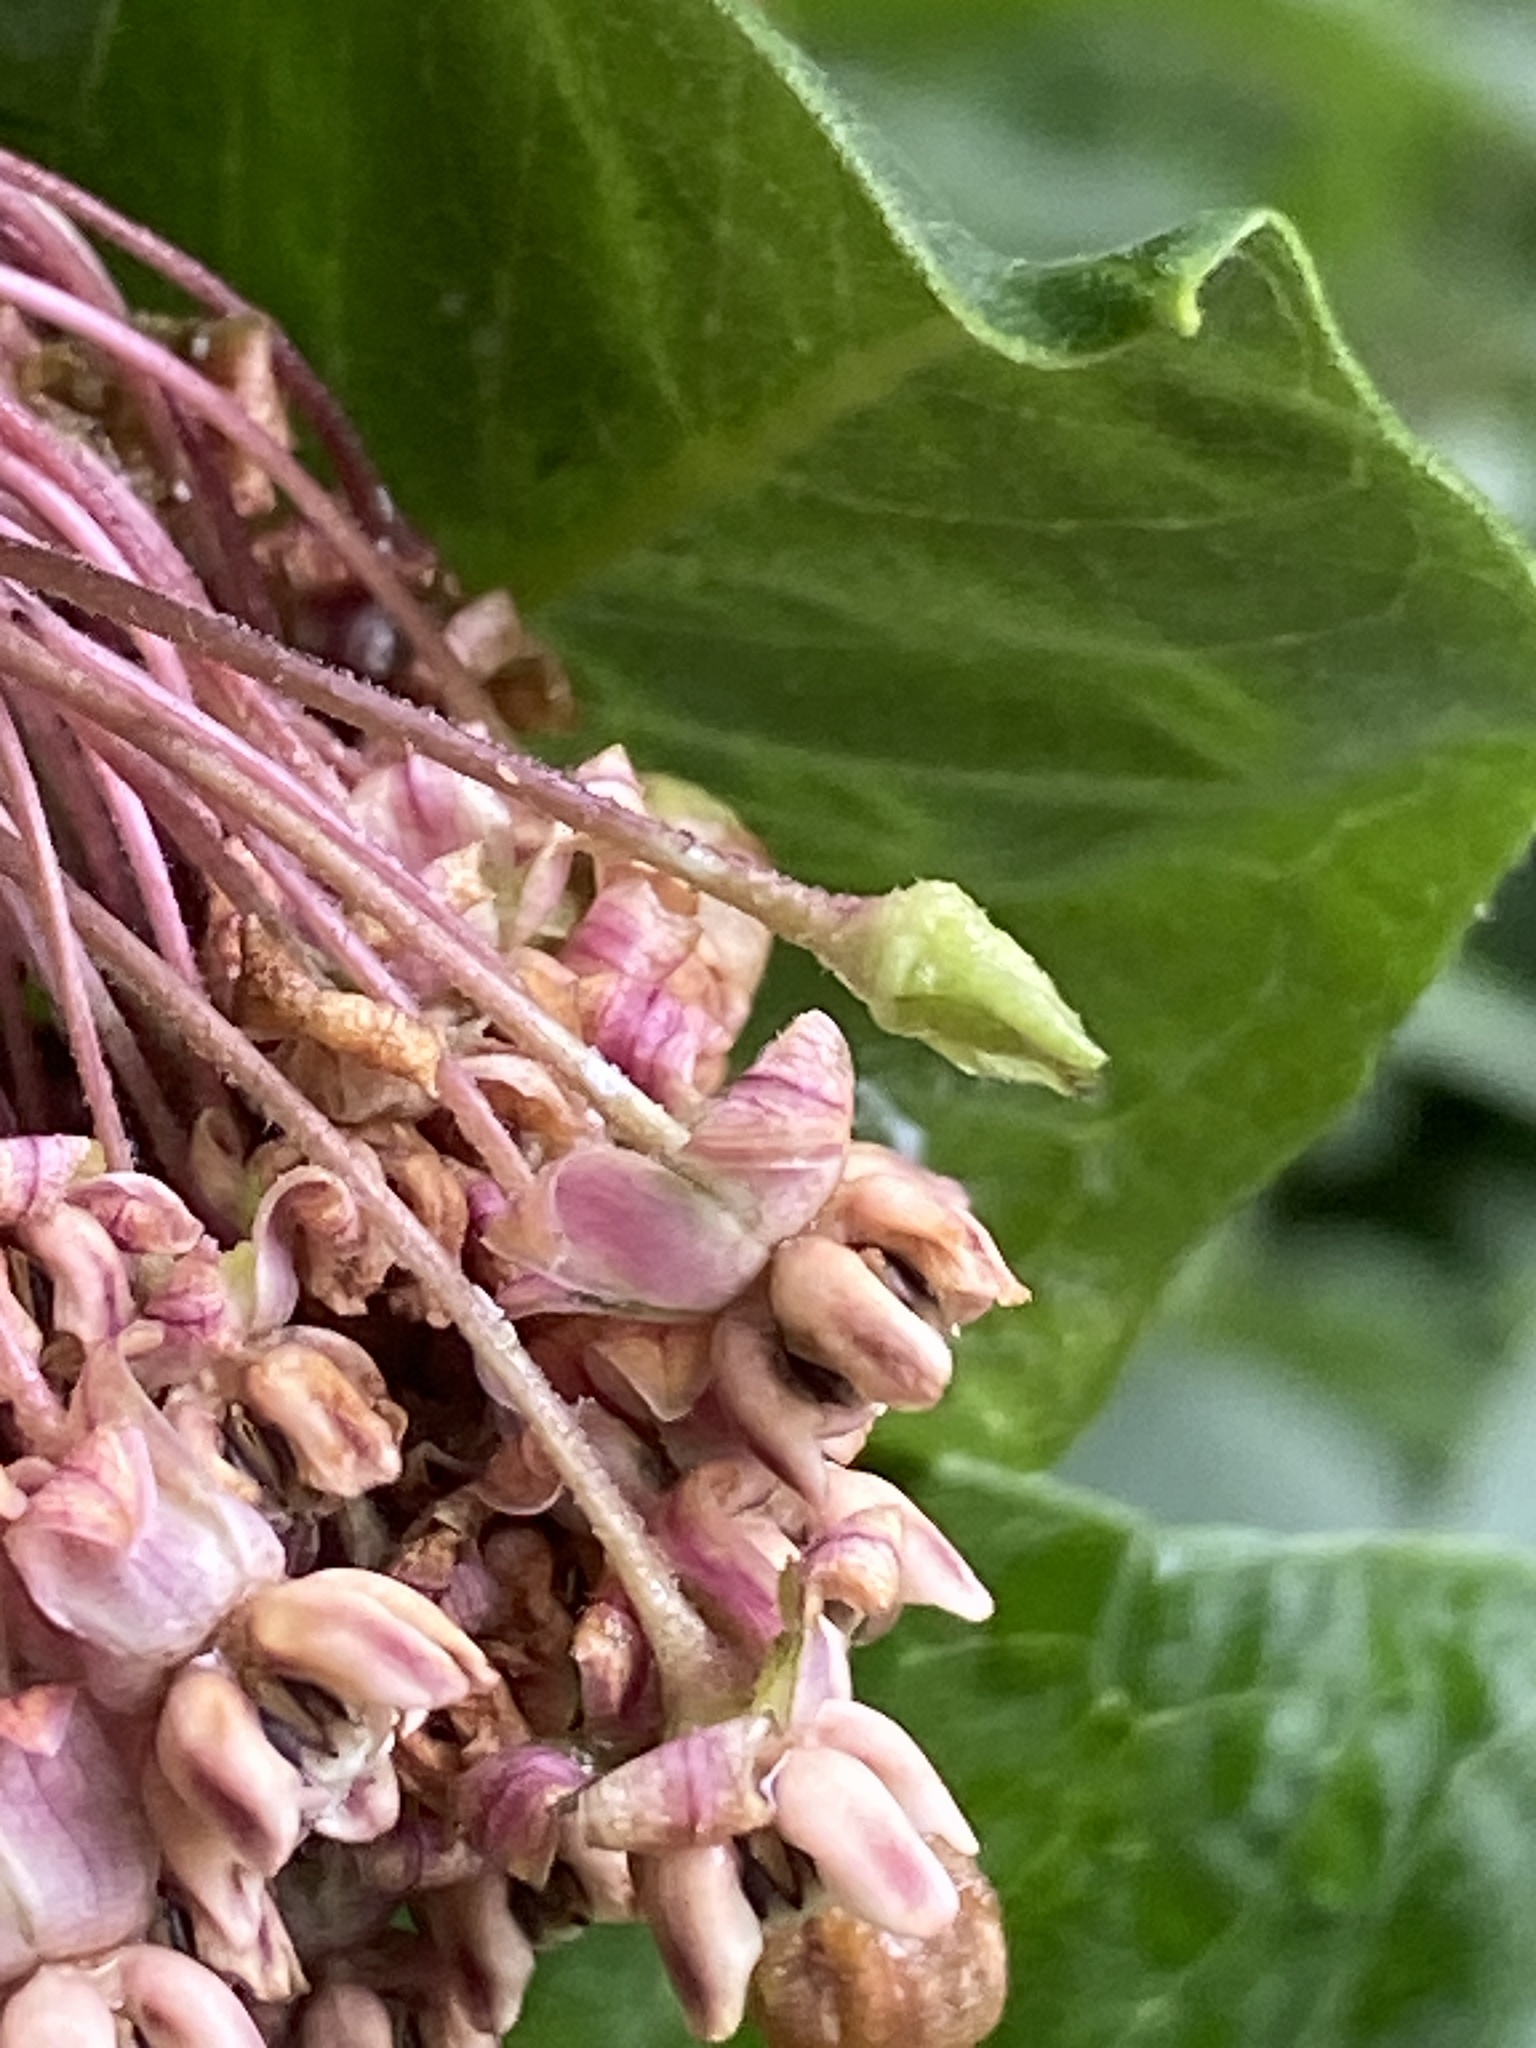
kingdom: Plantae
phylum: Tracheophyta
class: Magnoliopsida
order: Gentianales
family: Apocynaceae
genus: Asclepias
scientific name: Asclepias syriaca
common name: Common milkweed
